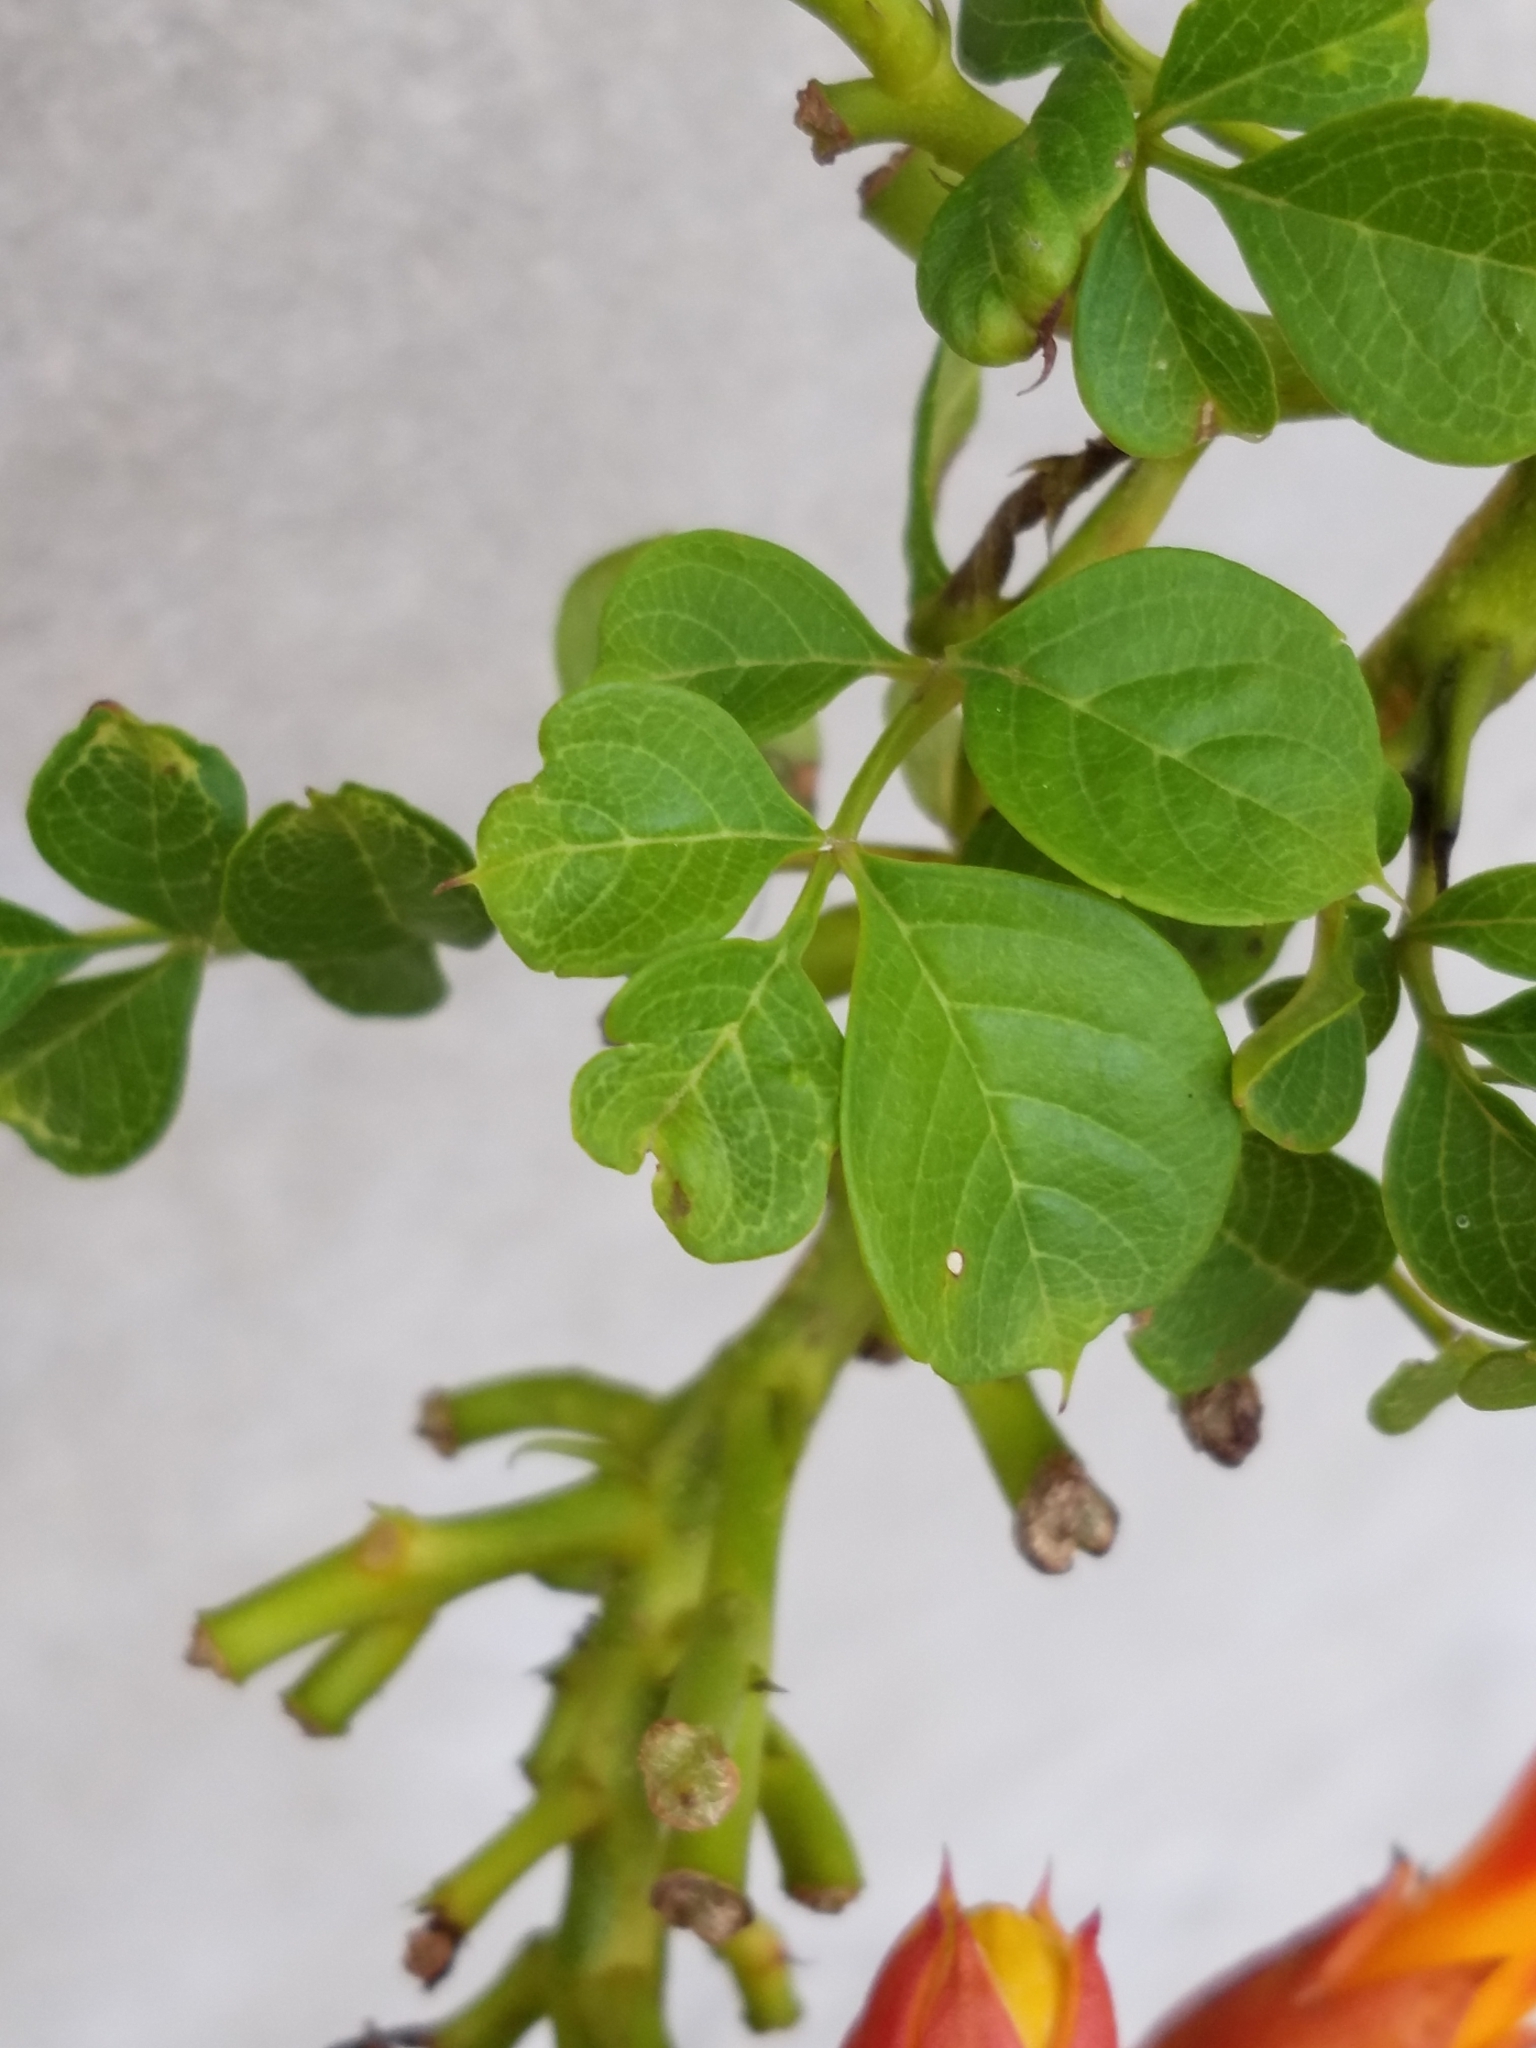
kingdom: Plantae
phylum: Tracheophyta
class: Magnoliopsida
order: Lamiales
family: Bignoniaceae
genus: Campsis
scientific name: Campsis radicans
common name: Trumpet-creeper
